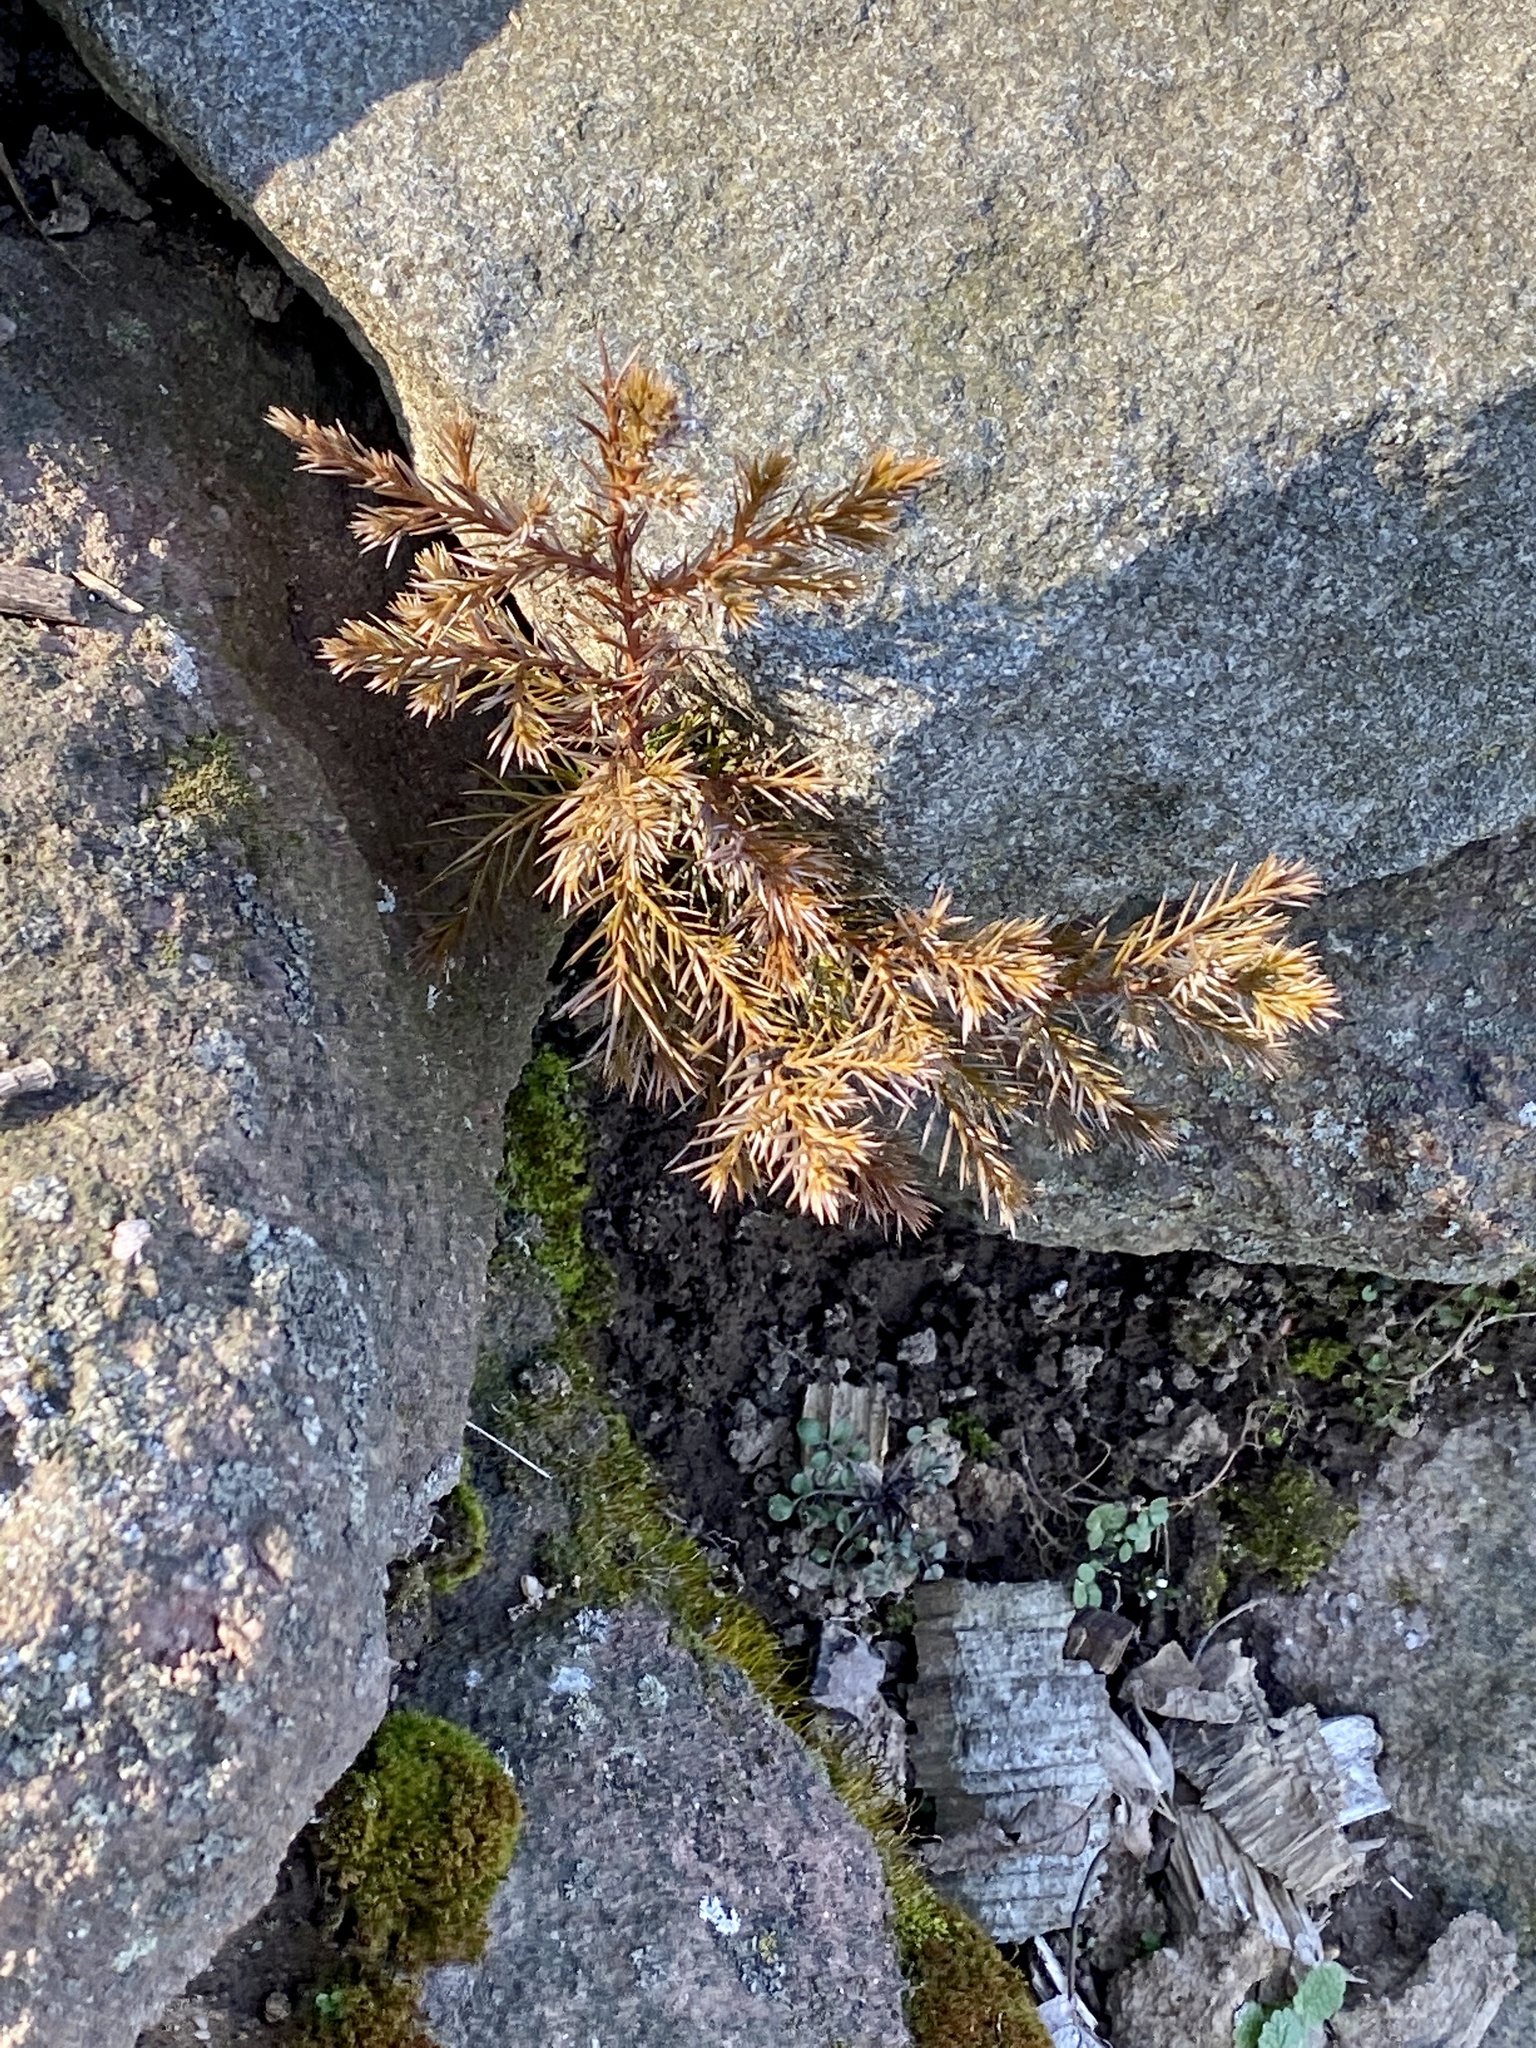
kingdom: Plantae
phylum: Tracheophyta
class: Pinopsida
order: Pinales
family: Cupressaceae
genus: Juniperus
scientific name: Juniperus virginiana
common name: Red juniper
